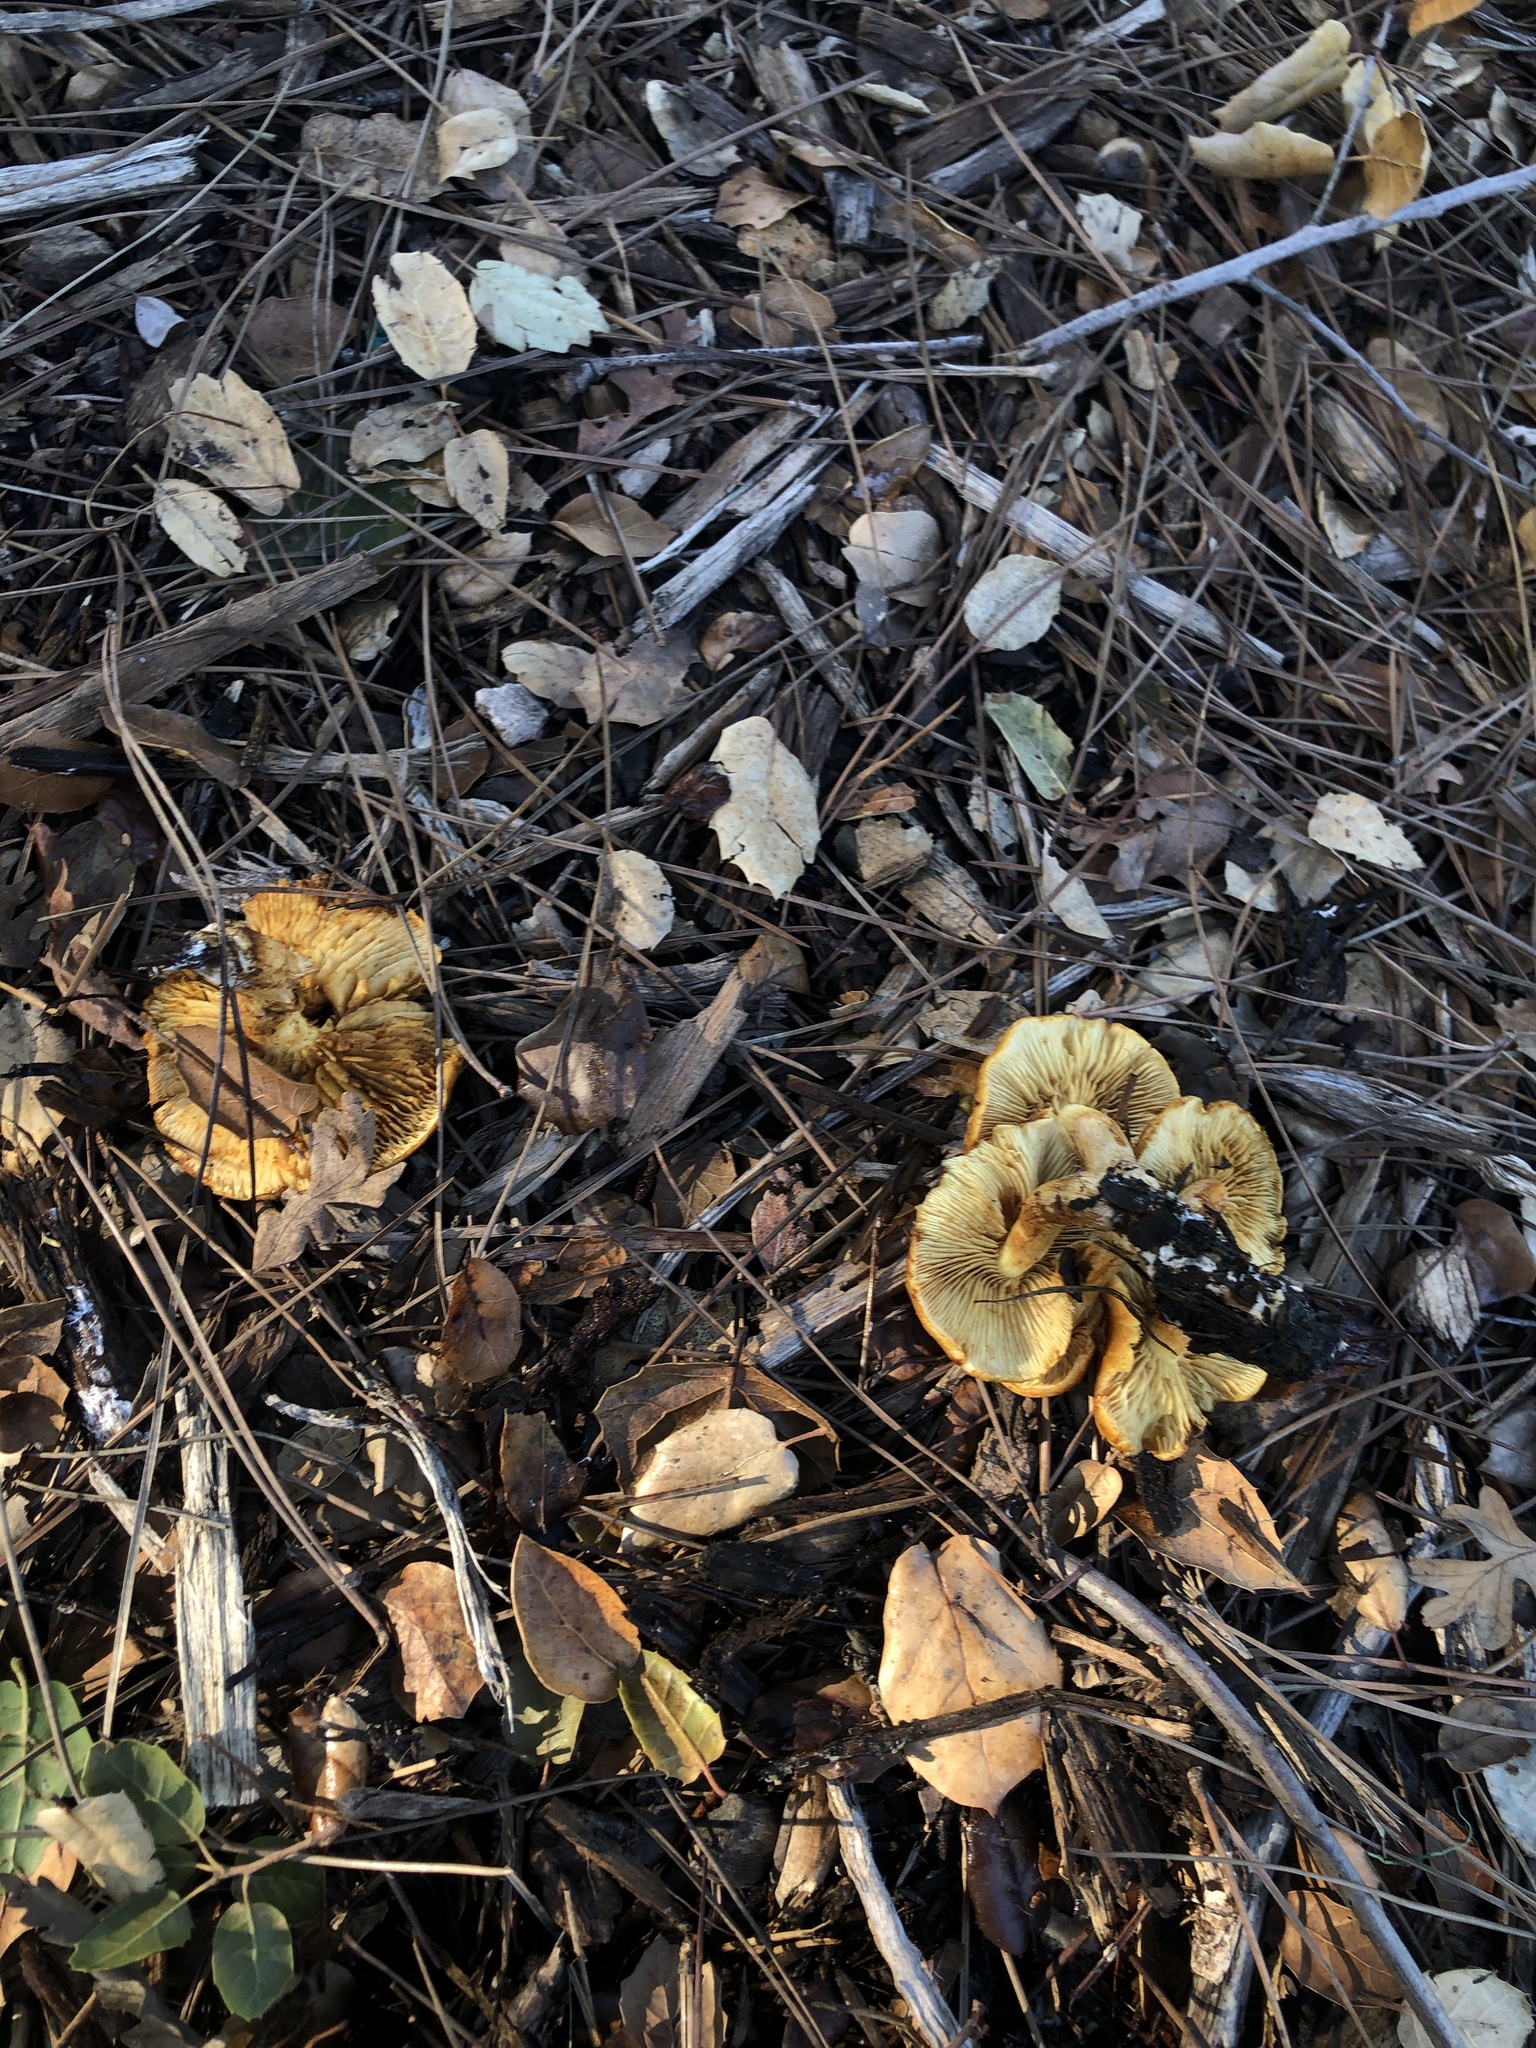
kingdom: Fungi
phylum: Basidiomycota
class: Agaricomycetes
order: Agaricales
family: Hymenogastraceae
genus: Gymnopilus
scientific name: Gymnopilus aurantiophyllus
